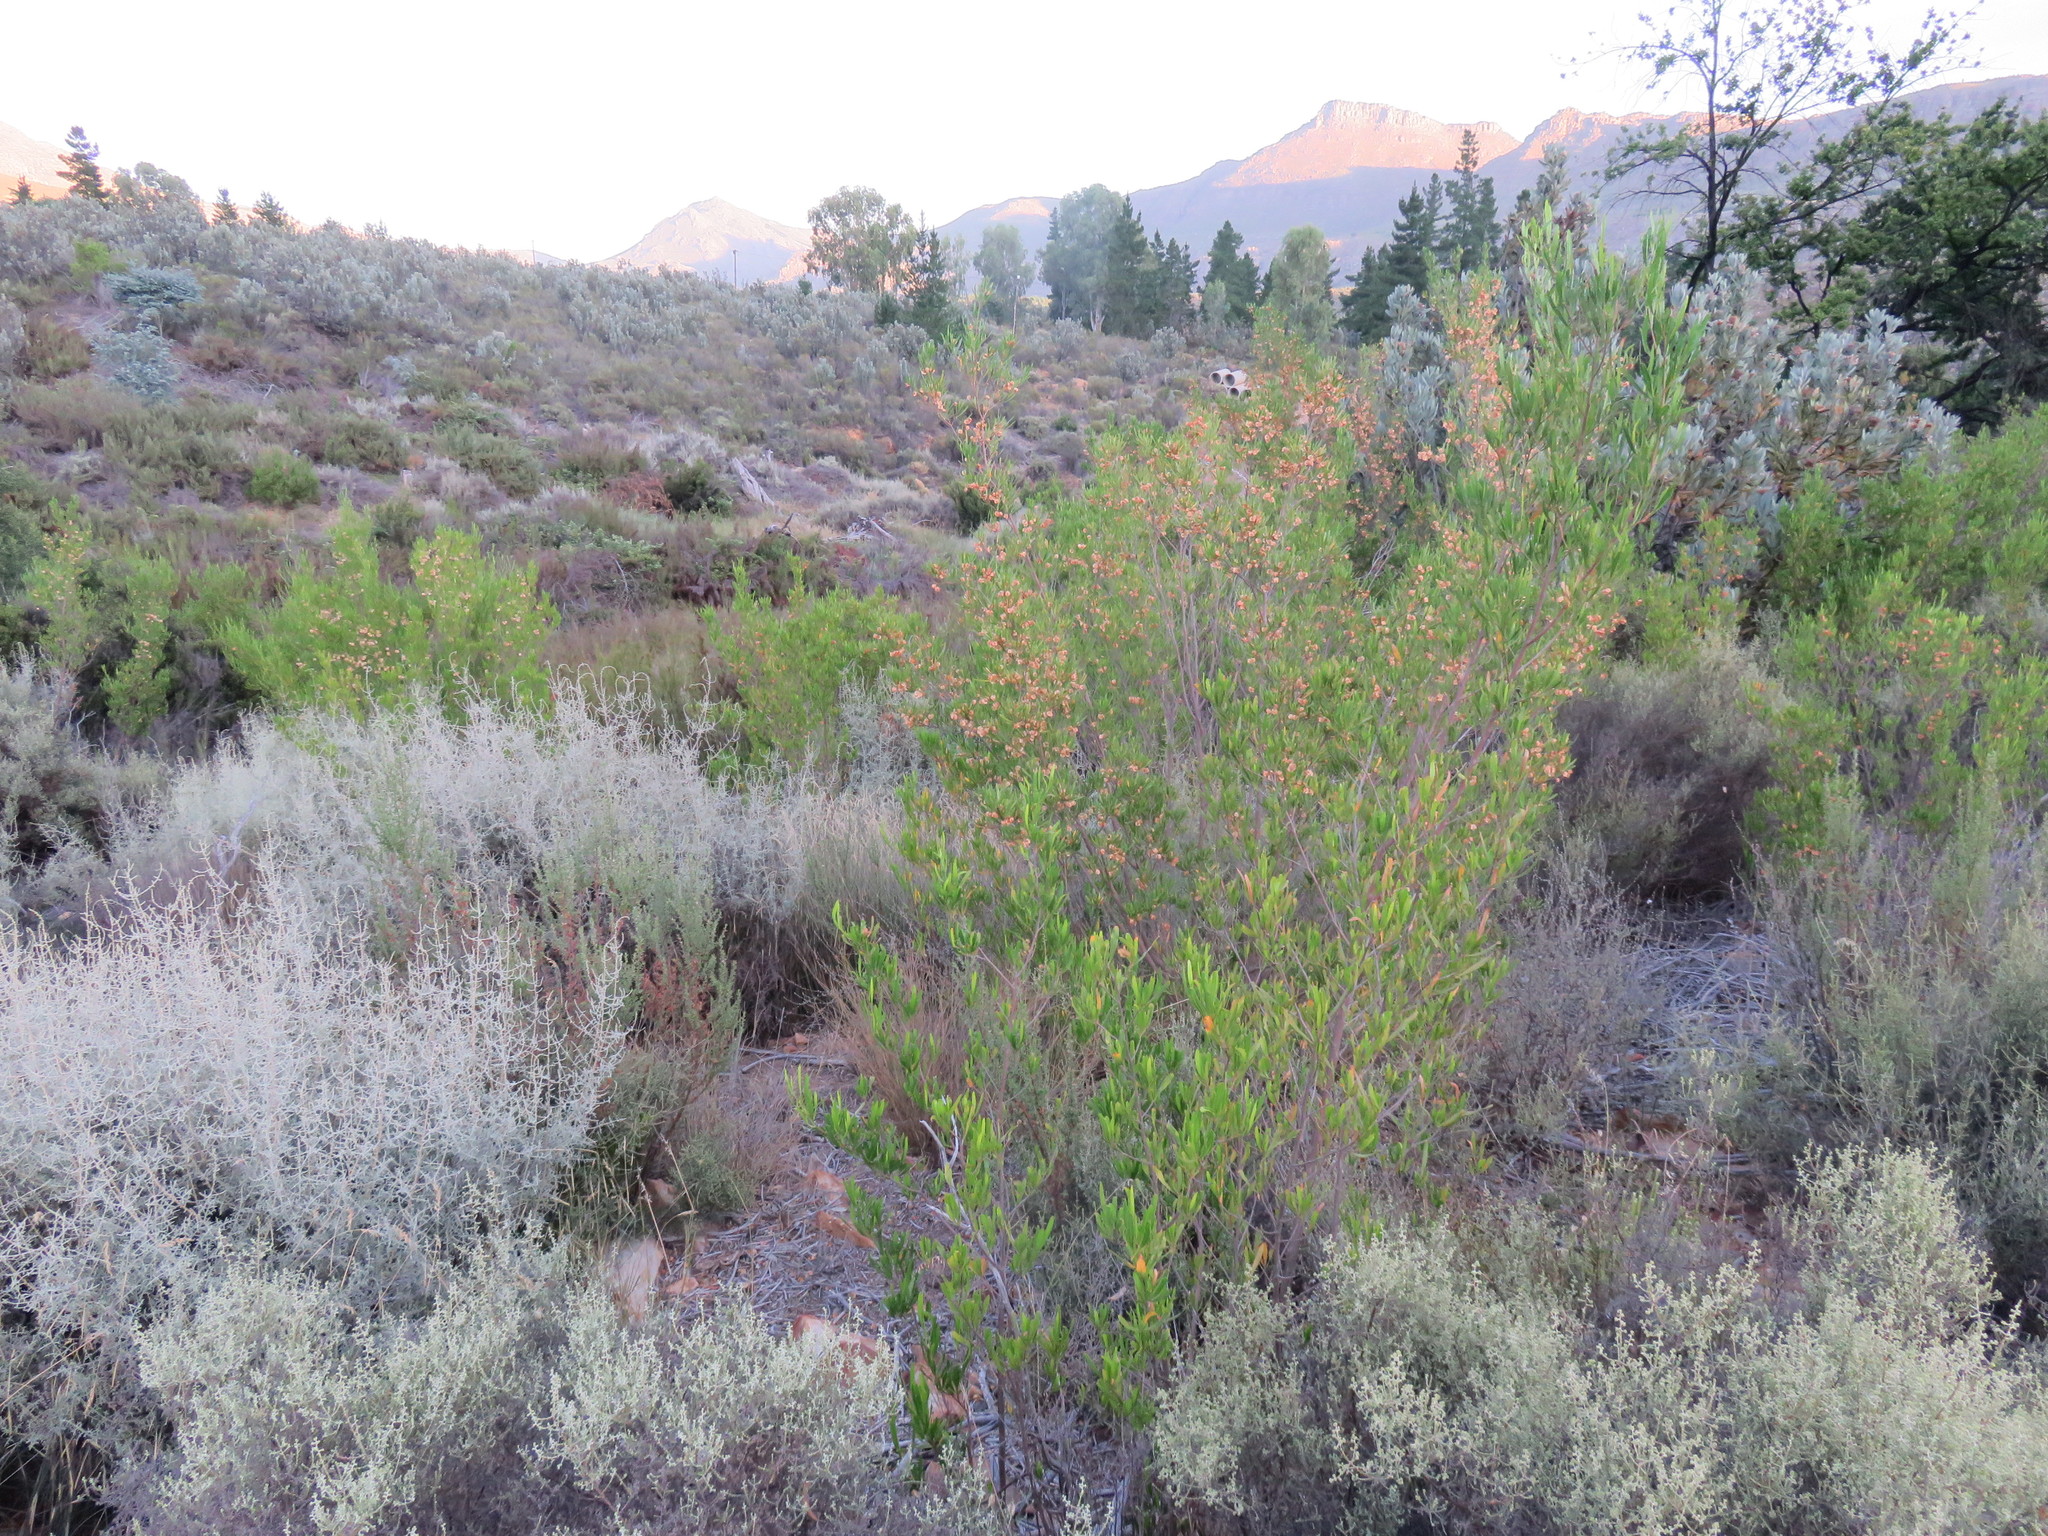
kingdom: Plantae
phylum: Tracheophyta
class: Magnoliopsida
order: Sapindales
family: Sapindaceae
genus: Dodonaea
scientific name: Dodonaea viscosa
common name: Hopbush
